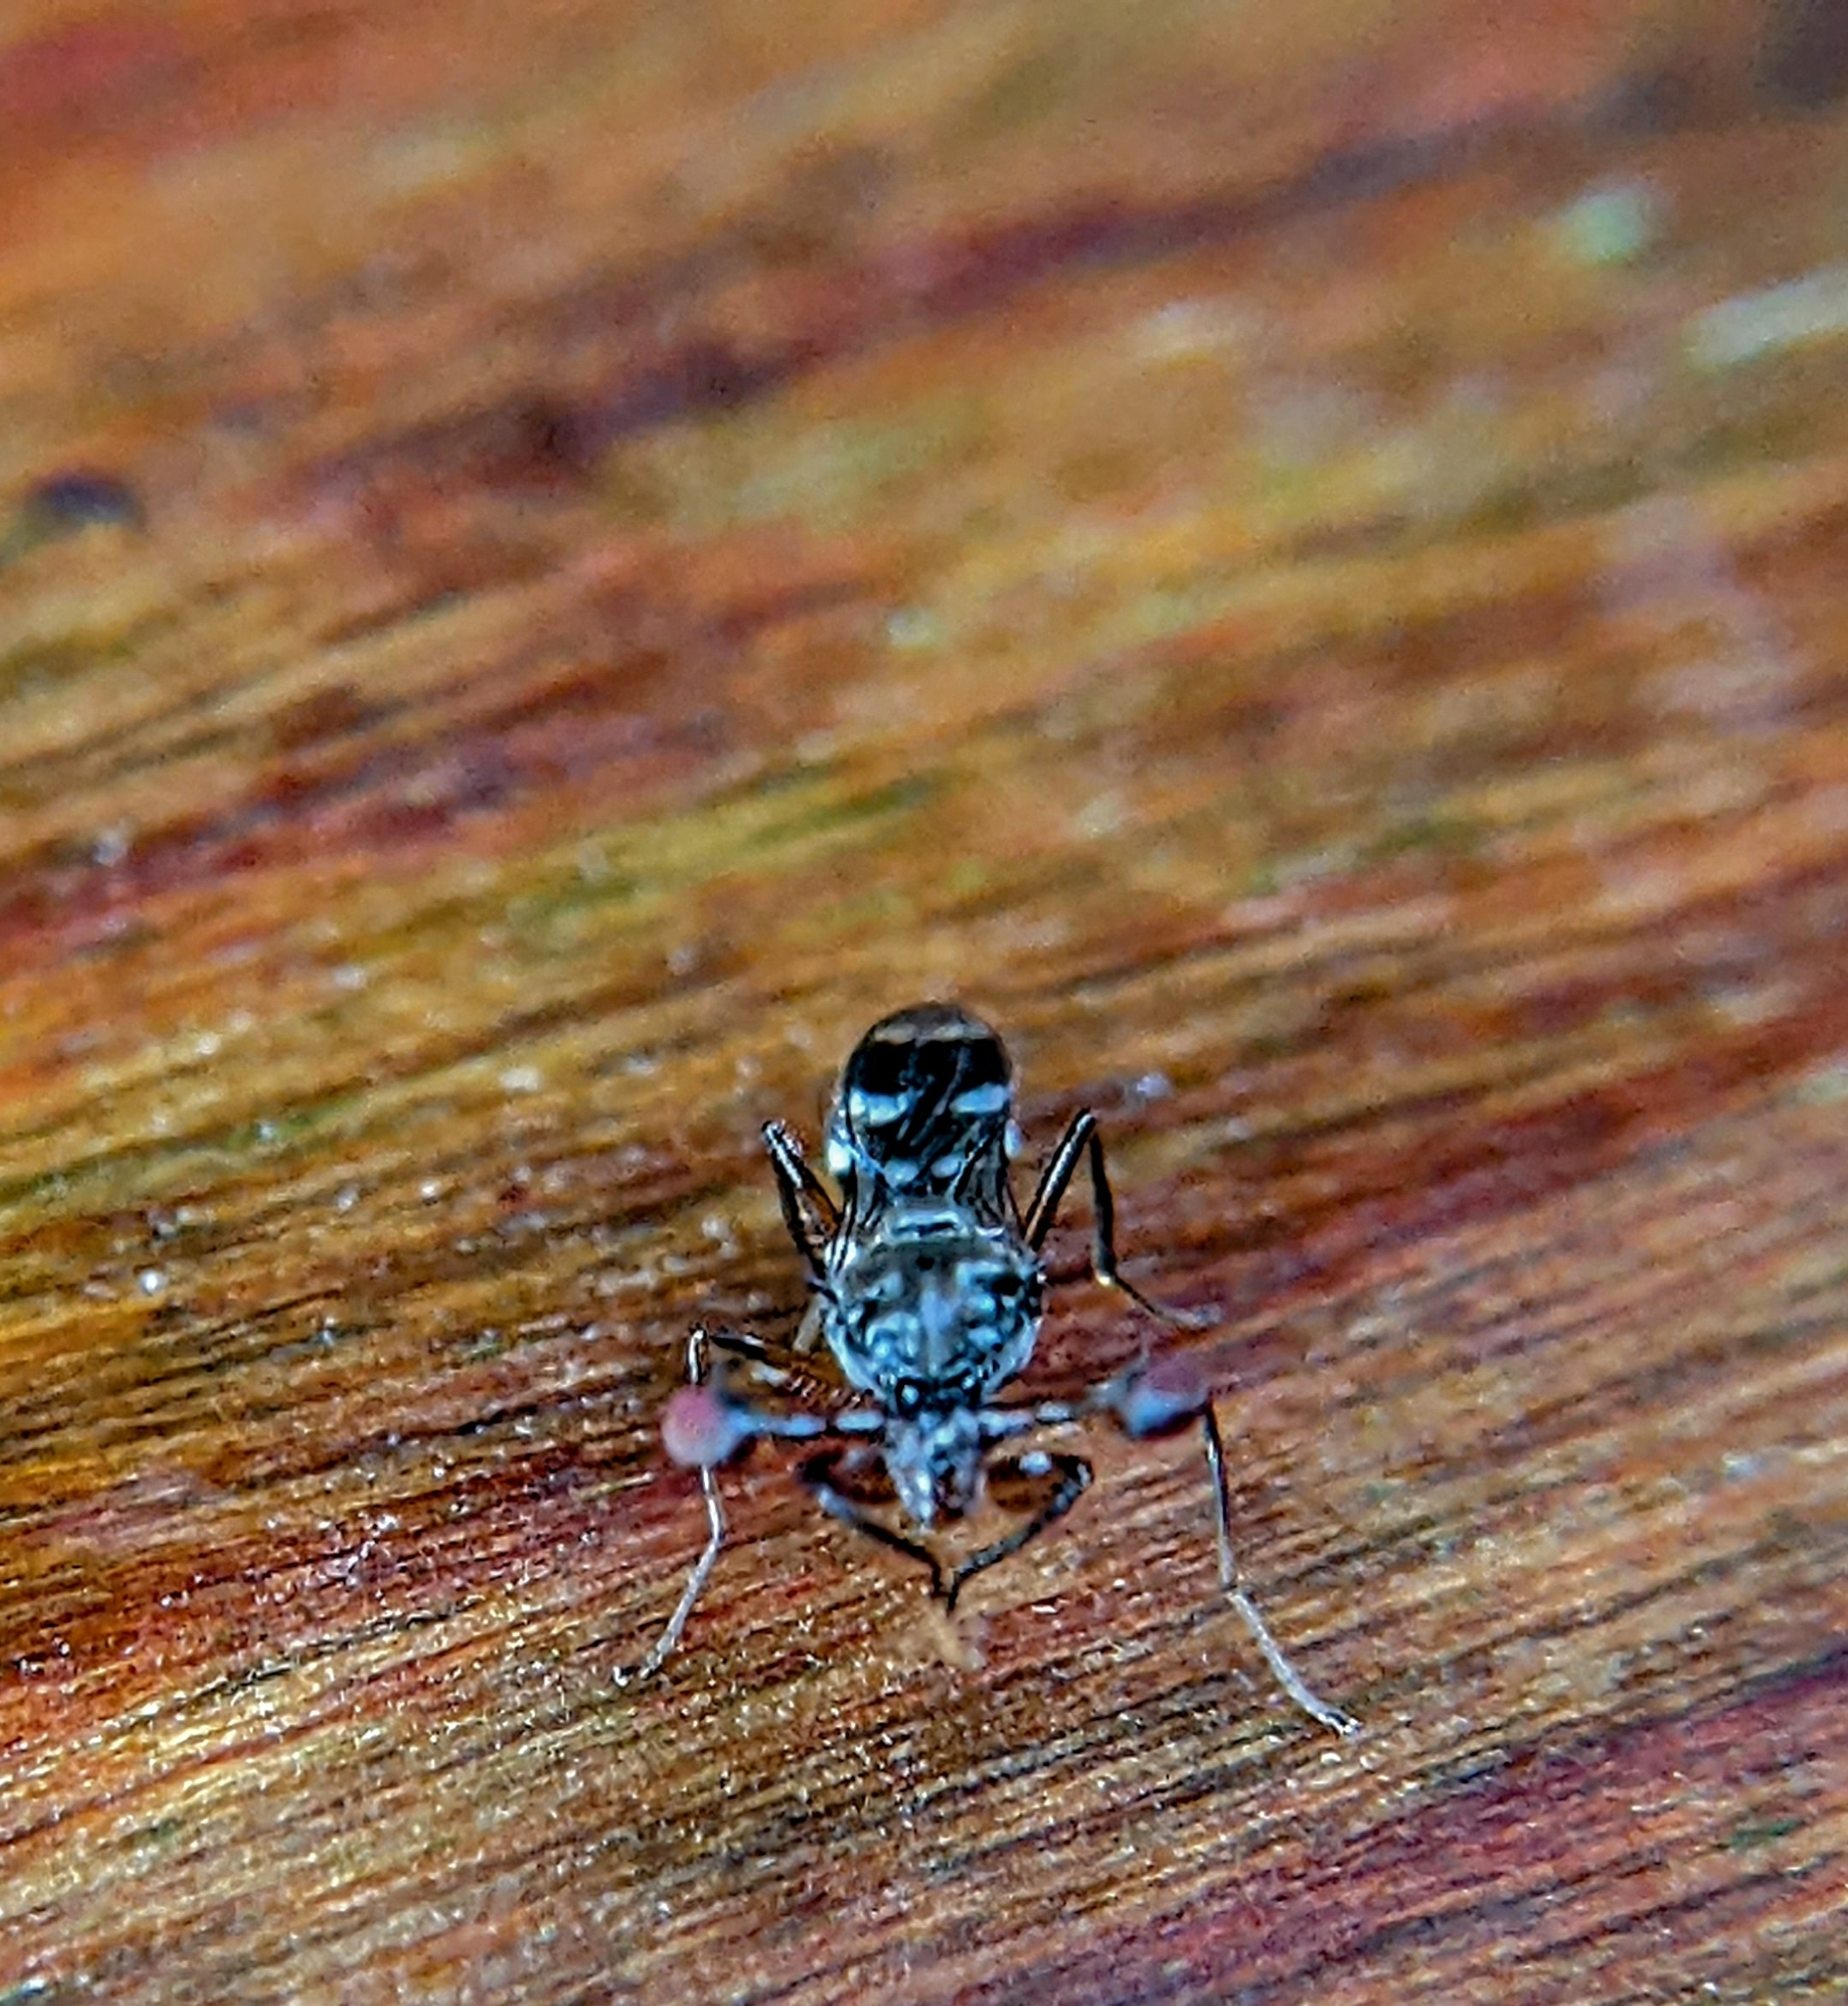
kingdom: Animalia
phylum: Arthropoda
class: Insecta
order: Diptera
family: Diopsidae
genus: Megalabops
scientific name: Megalabops
